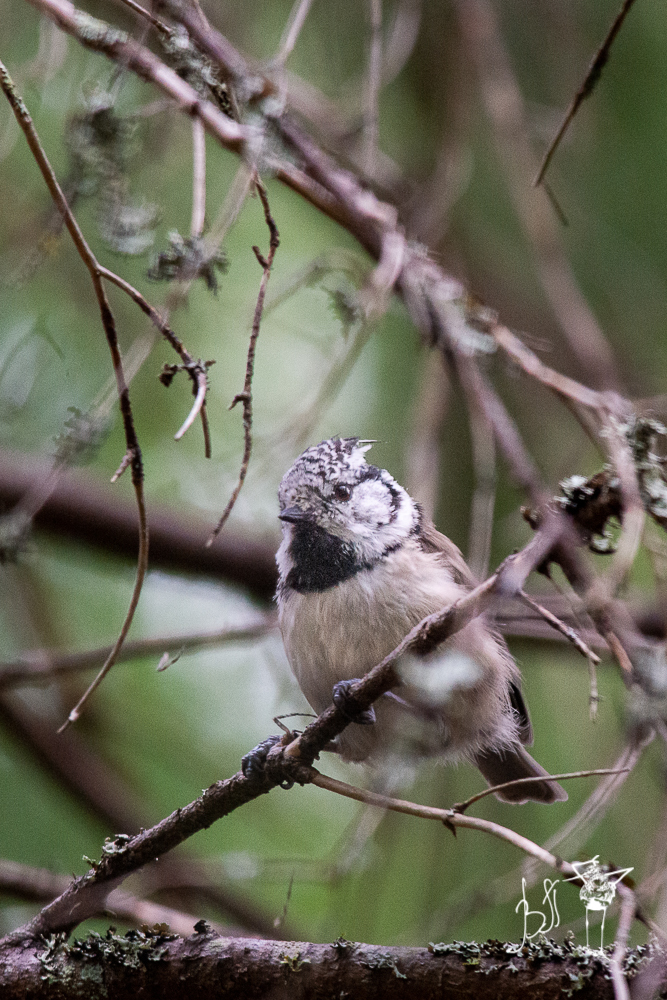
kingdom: Animalia
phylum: Chordata
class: Aves
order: Passeriformes
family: Paridae
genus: Lophophanes
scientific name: Lophophanes cristatus
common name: European crested tit
